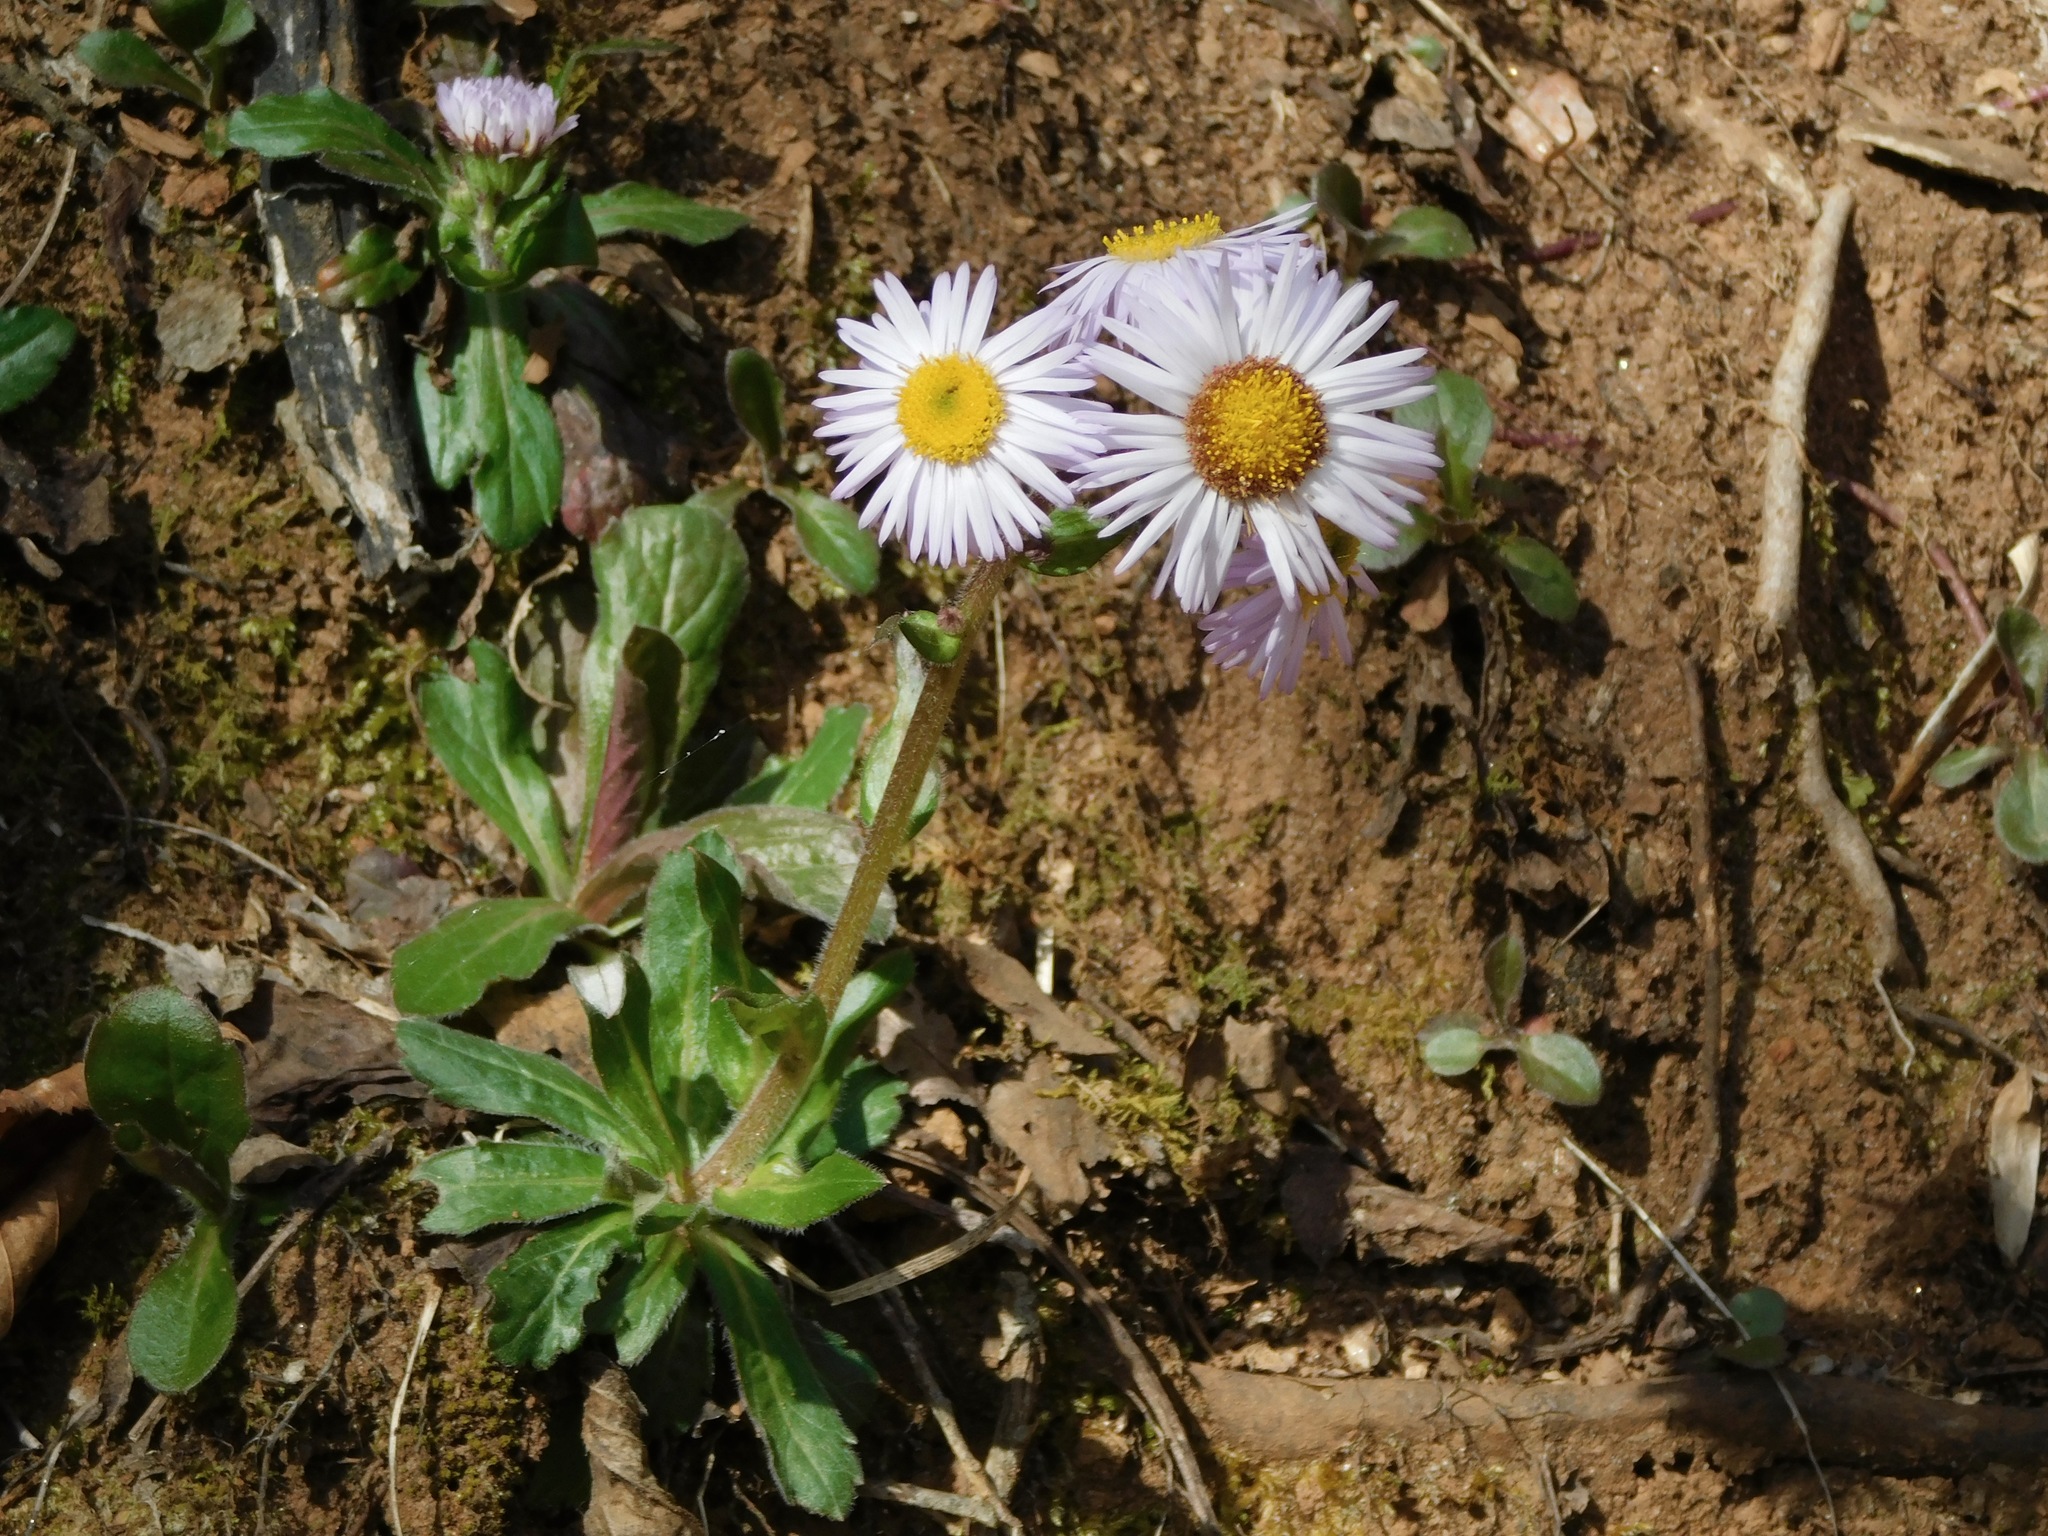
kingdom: Plantae
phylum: Tracheophyta
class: Magnoliopsida
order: Asterales
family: Asteraceae
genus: Erigeron
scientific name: Erigeron pulchellus
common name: Hairy fleabane
